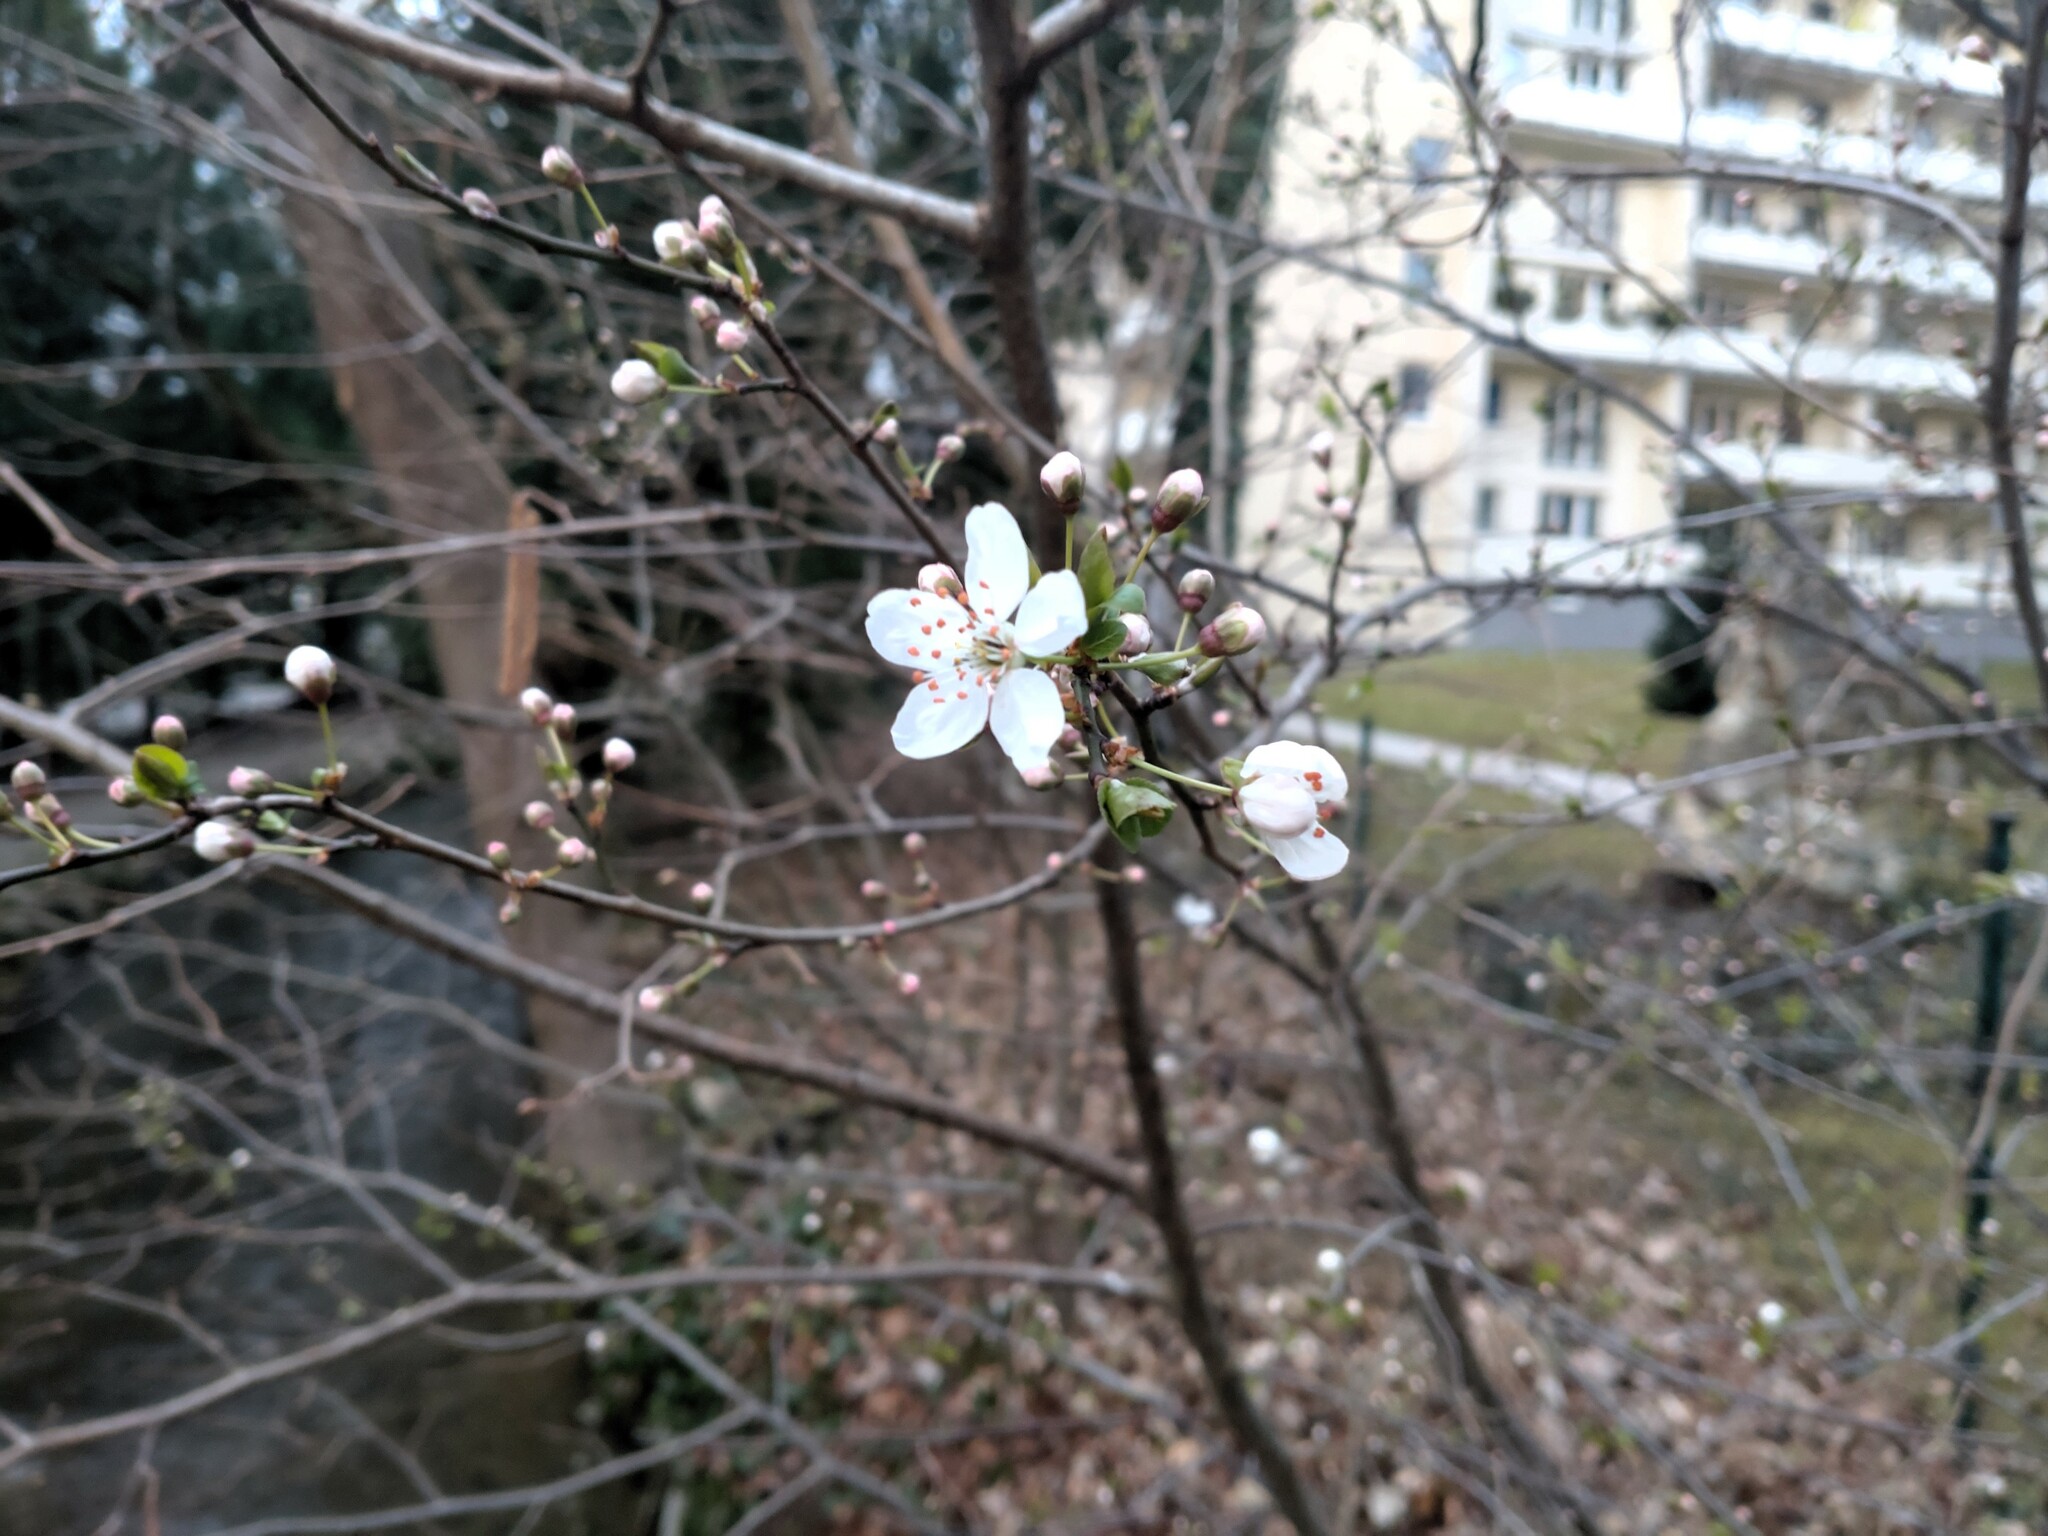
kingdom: Plantae
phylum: Tracheophyta
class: Magnoliopsida
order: Rosales
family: Rosaceae
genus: Prunus
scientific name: Prunus cerasifera
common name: Cherry plum
